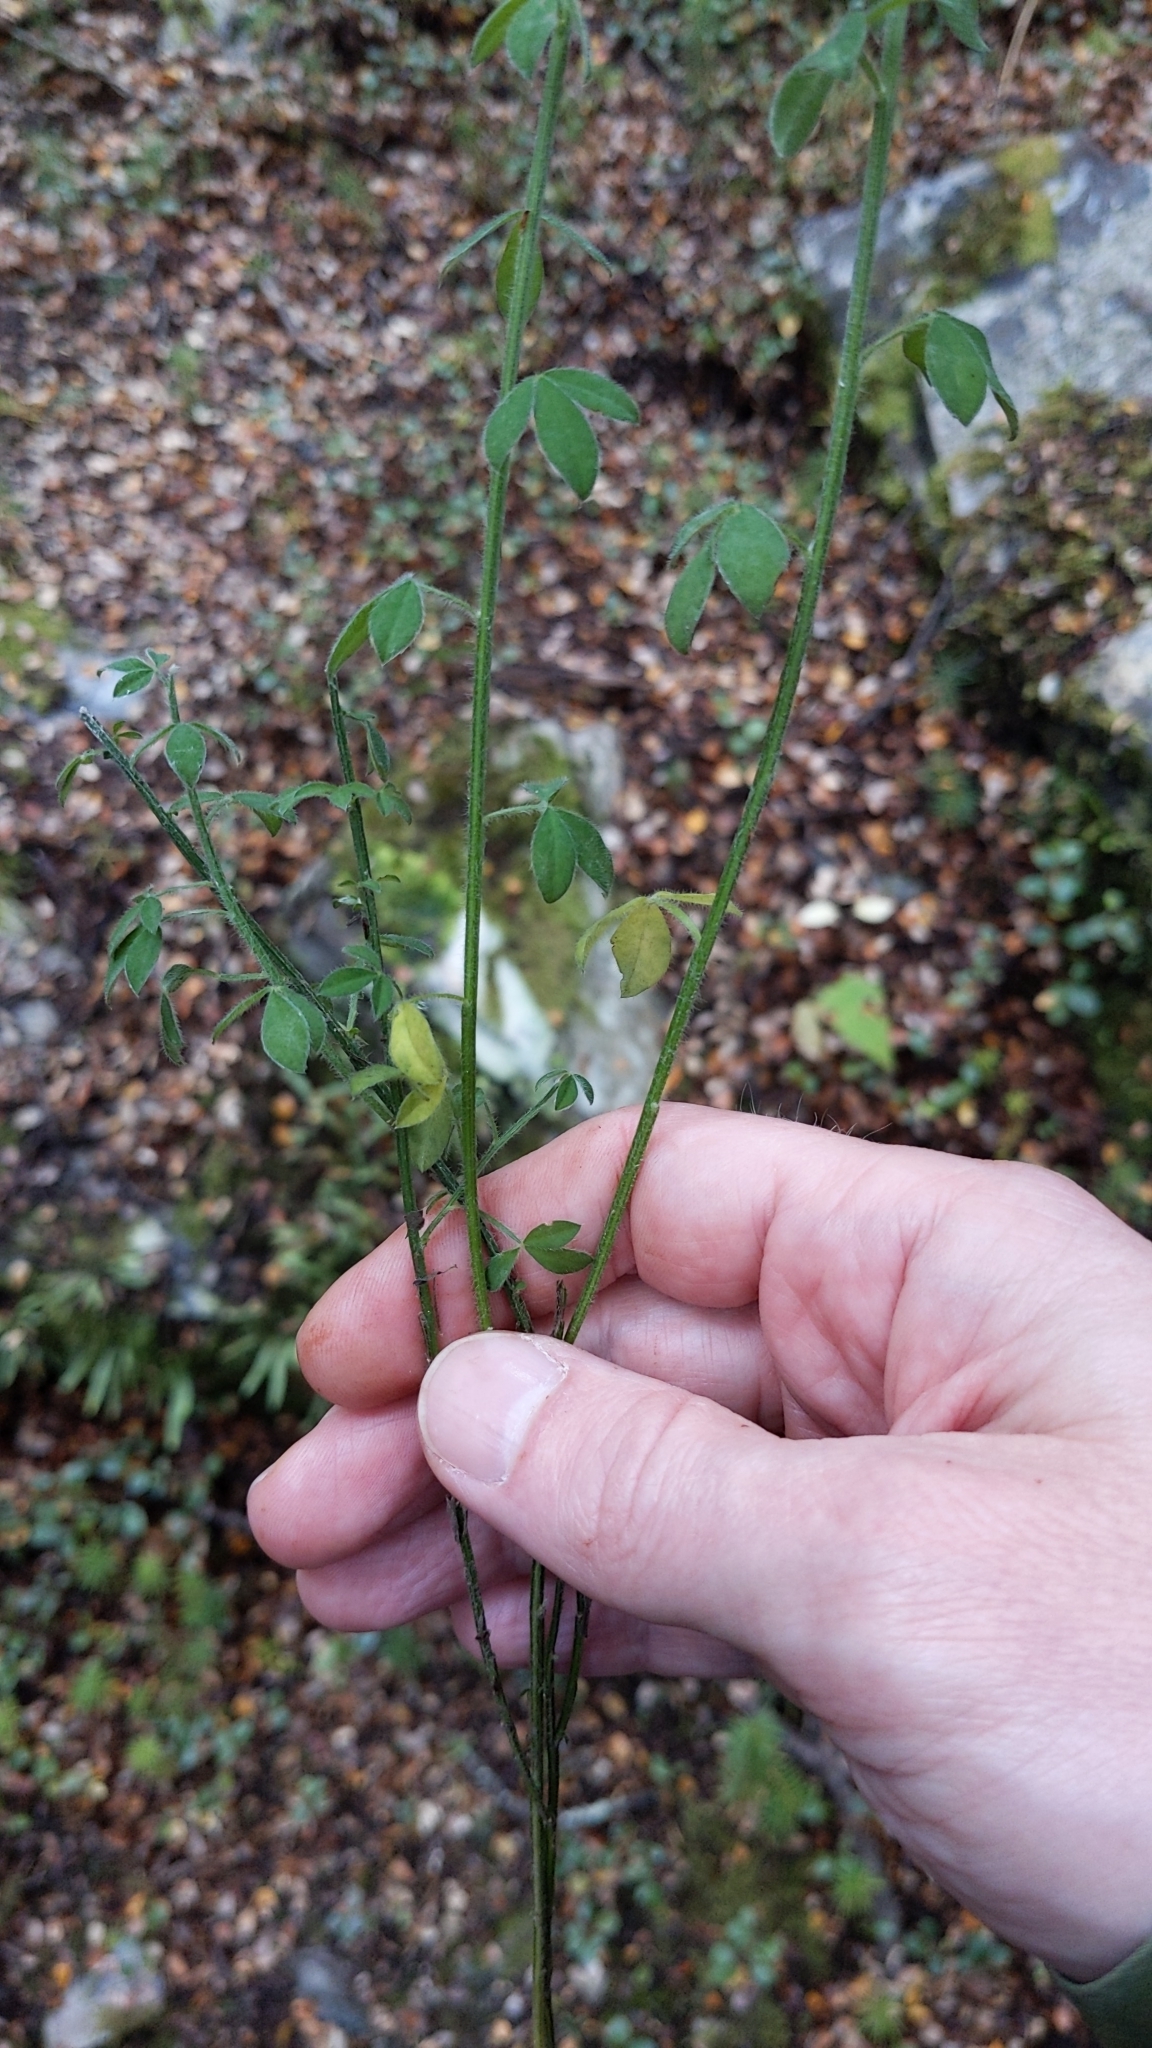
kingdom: Plantae
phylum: Tracheophyta
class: Magnoliopsida
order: Fabales
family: Fabaceae
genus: Cytisus
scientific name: Cytisus scoparius
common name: Scotch broom
